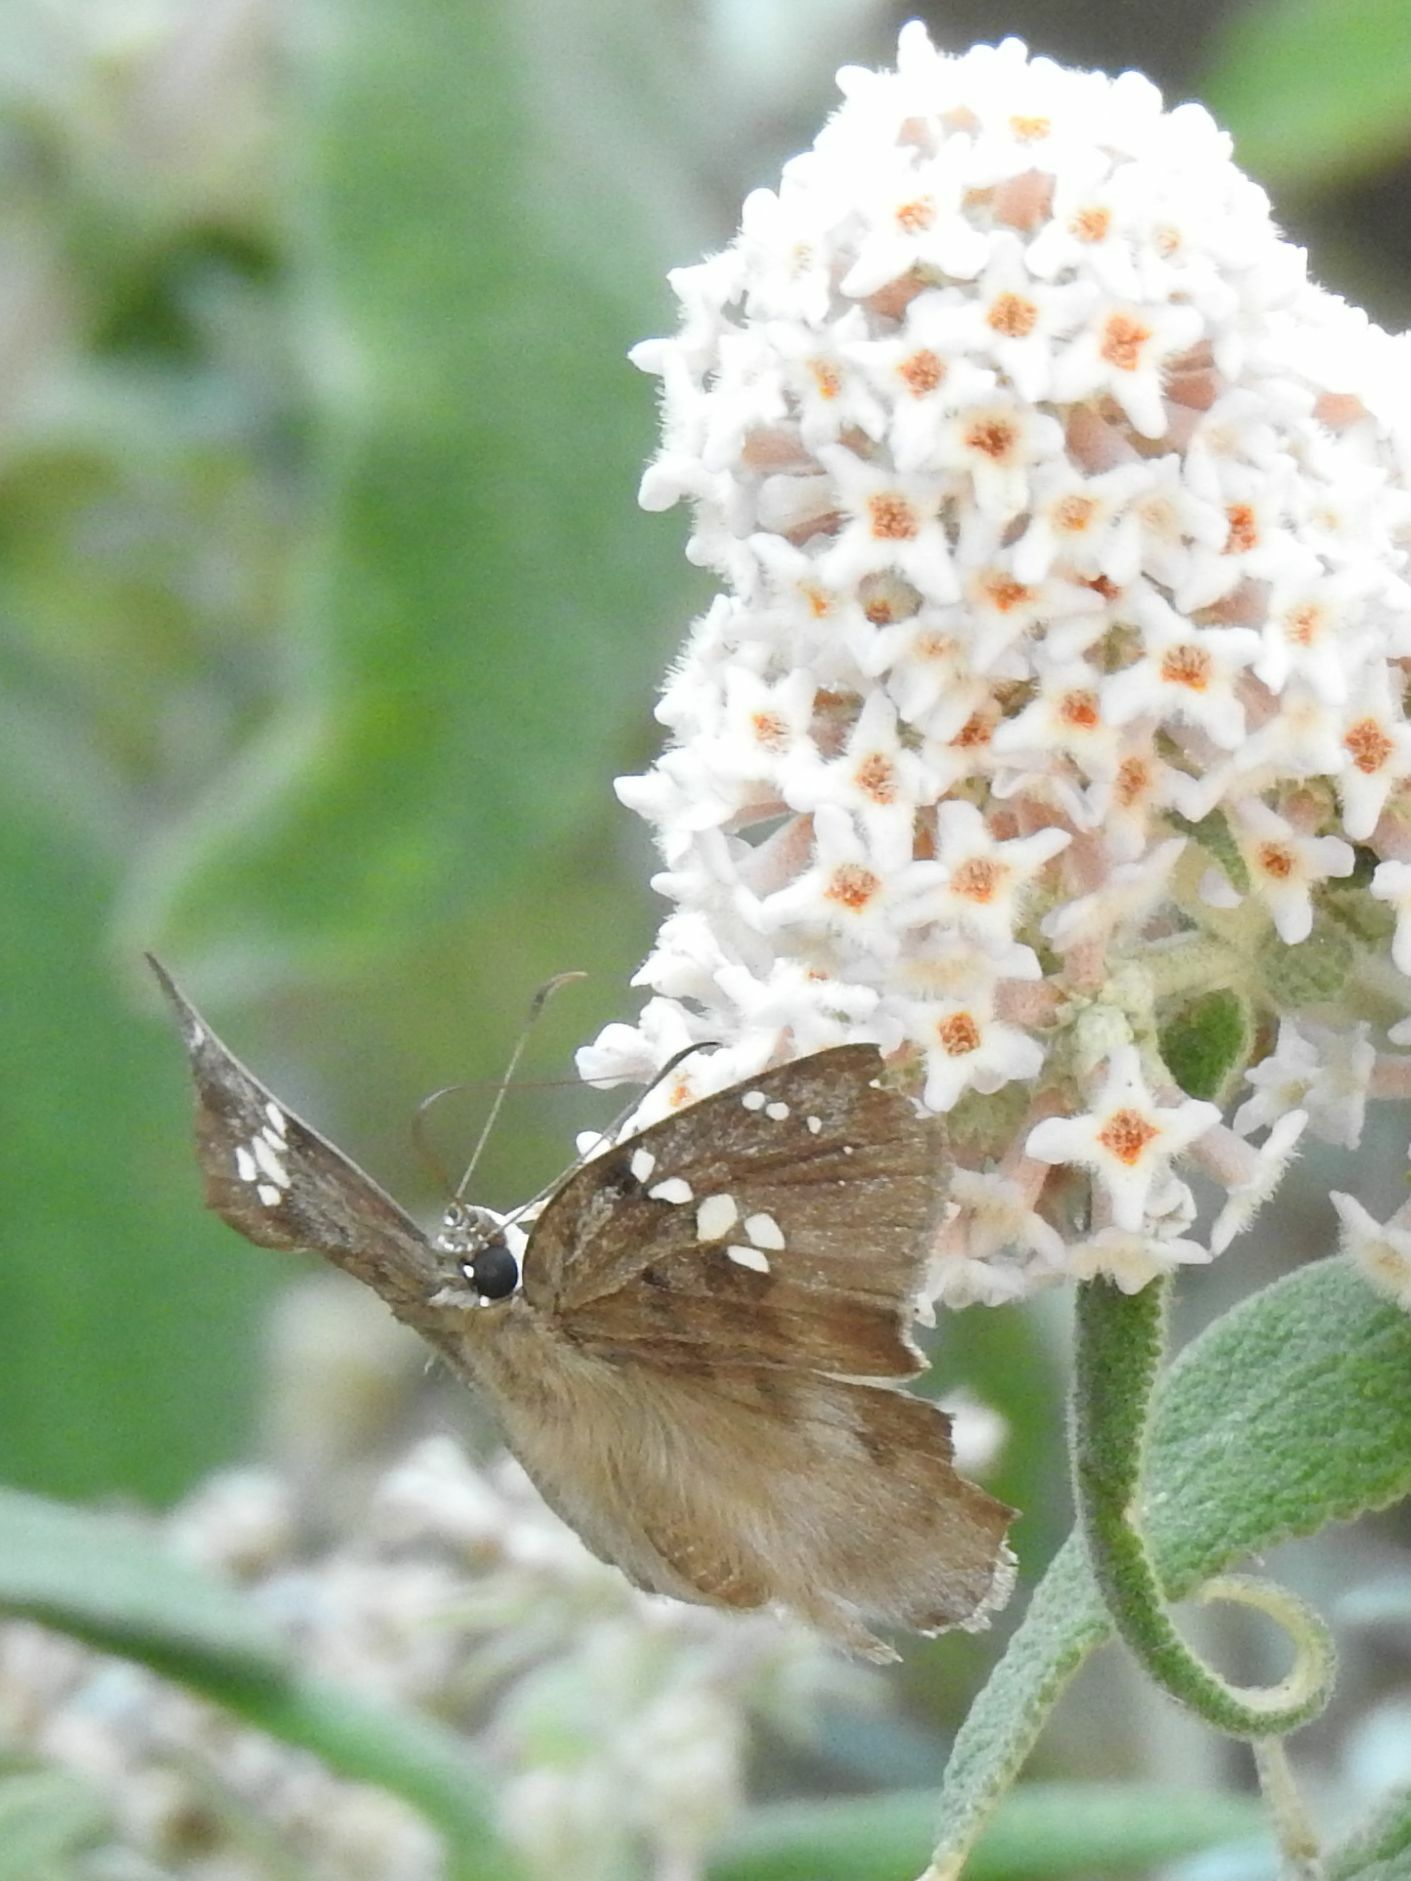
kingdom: Animalia
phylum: Arthropoda
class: Insecta
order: Lepidoptera
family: Hesperiidae
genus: Tagiades
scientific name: Tagiades flesus
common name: Clouded flat
